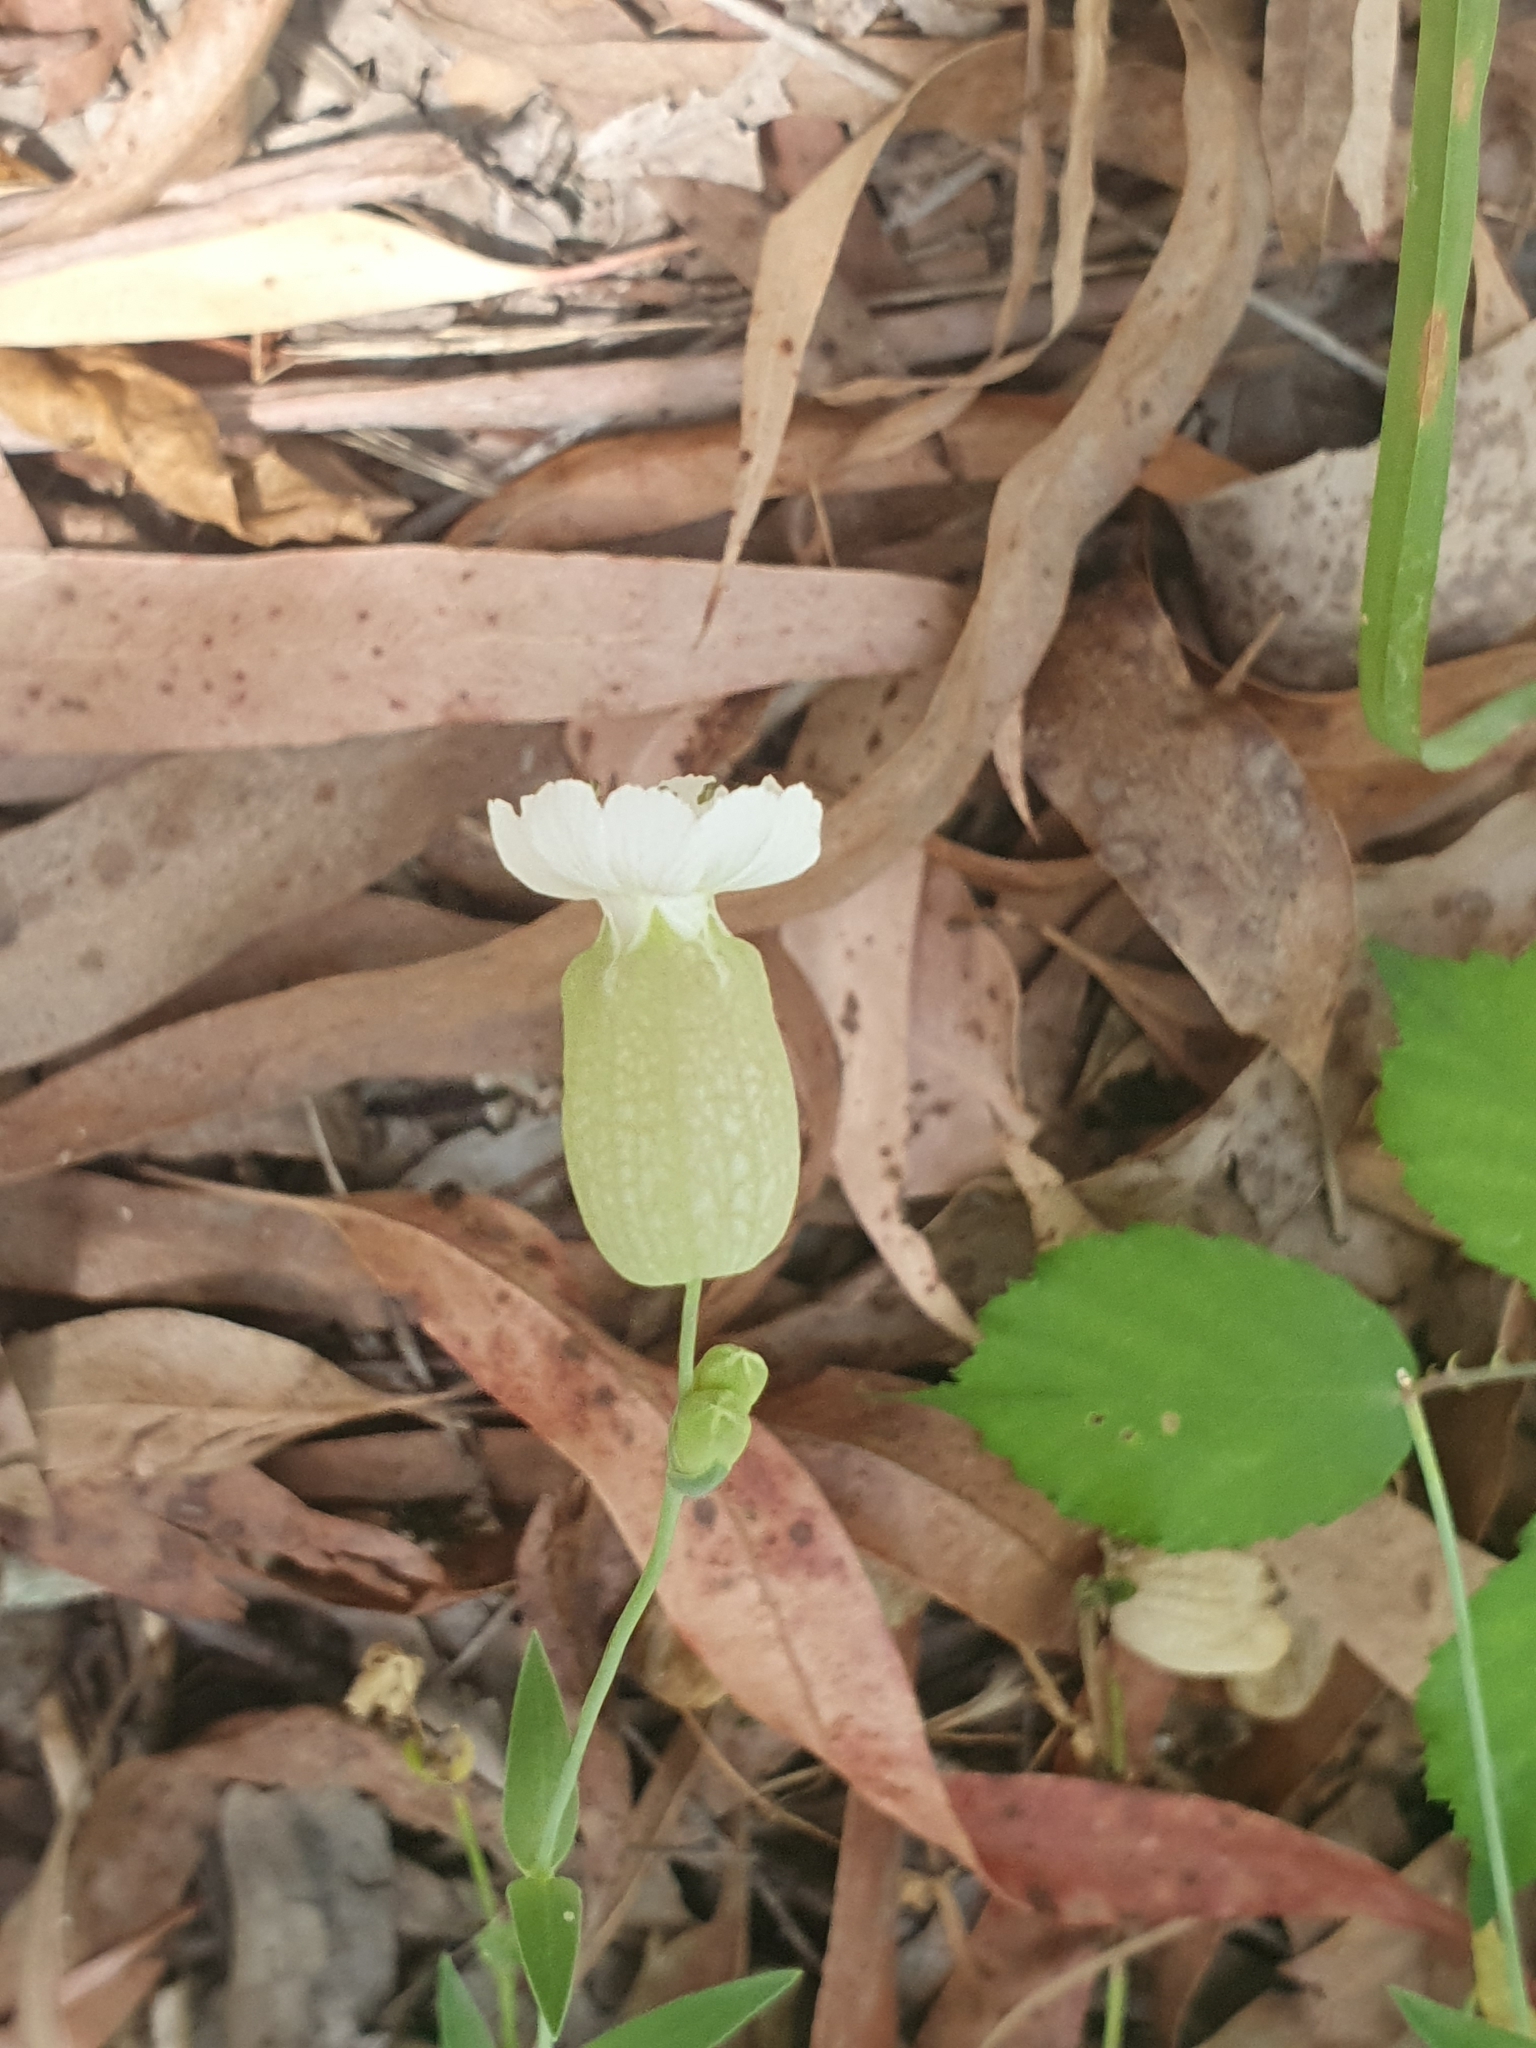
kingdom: Plantae
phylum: Tracheophyta
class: Magnoliopsida
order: Caryophyllales
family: Caryophyllaceae
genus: Silene
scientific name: Silene vulgaris
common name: Bladder campion
